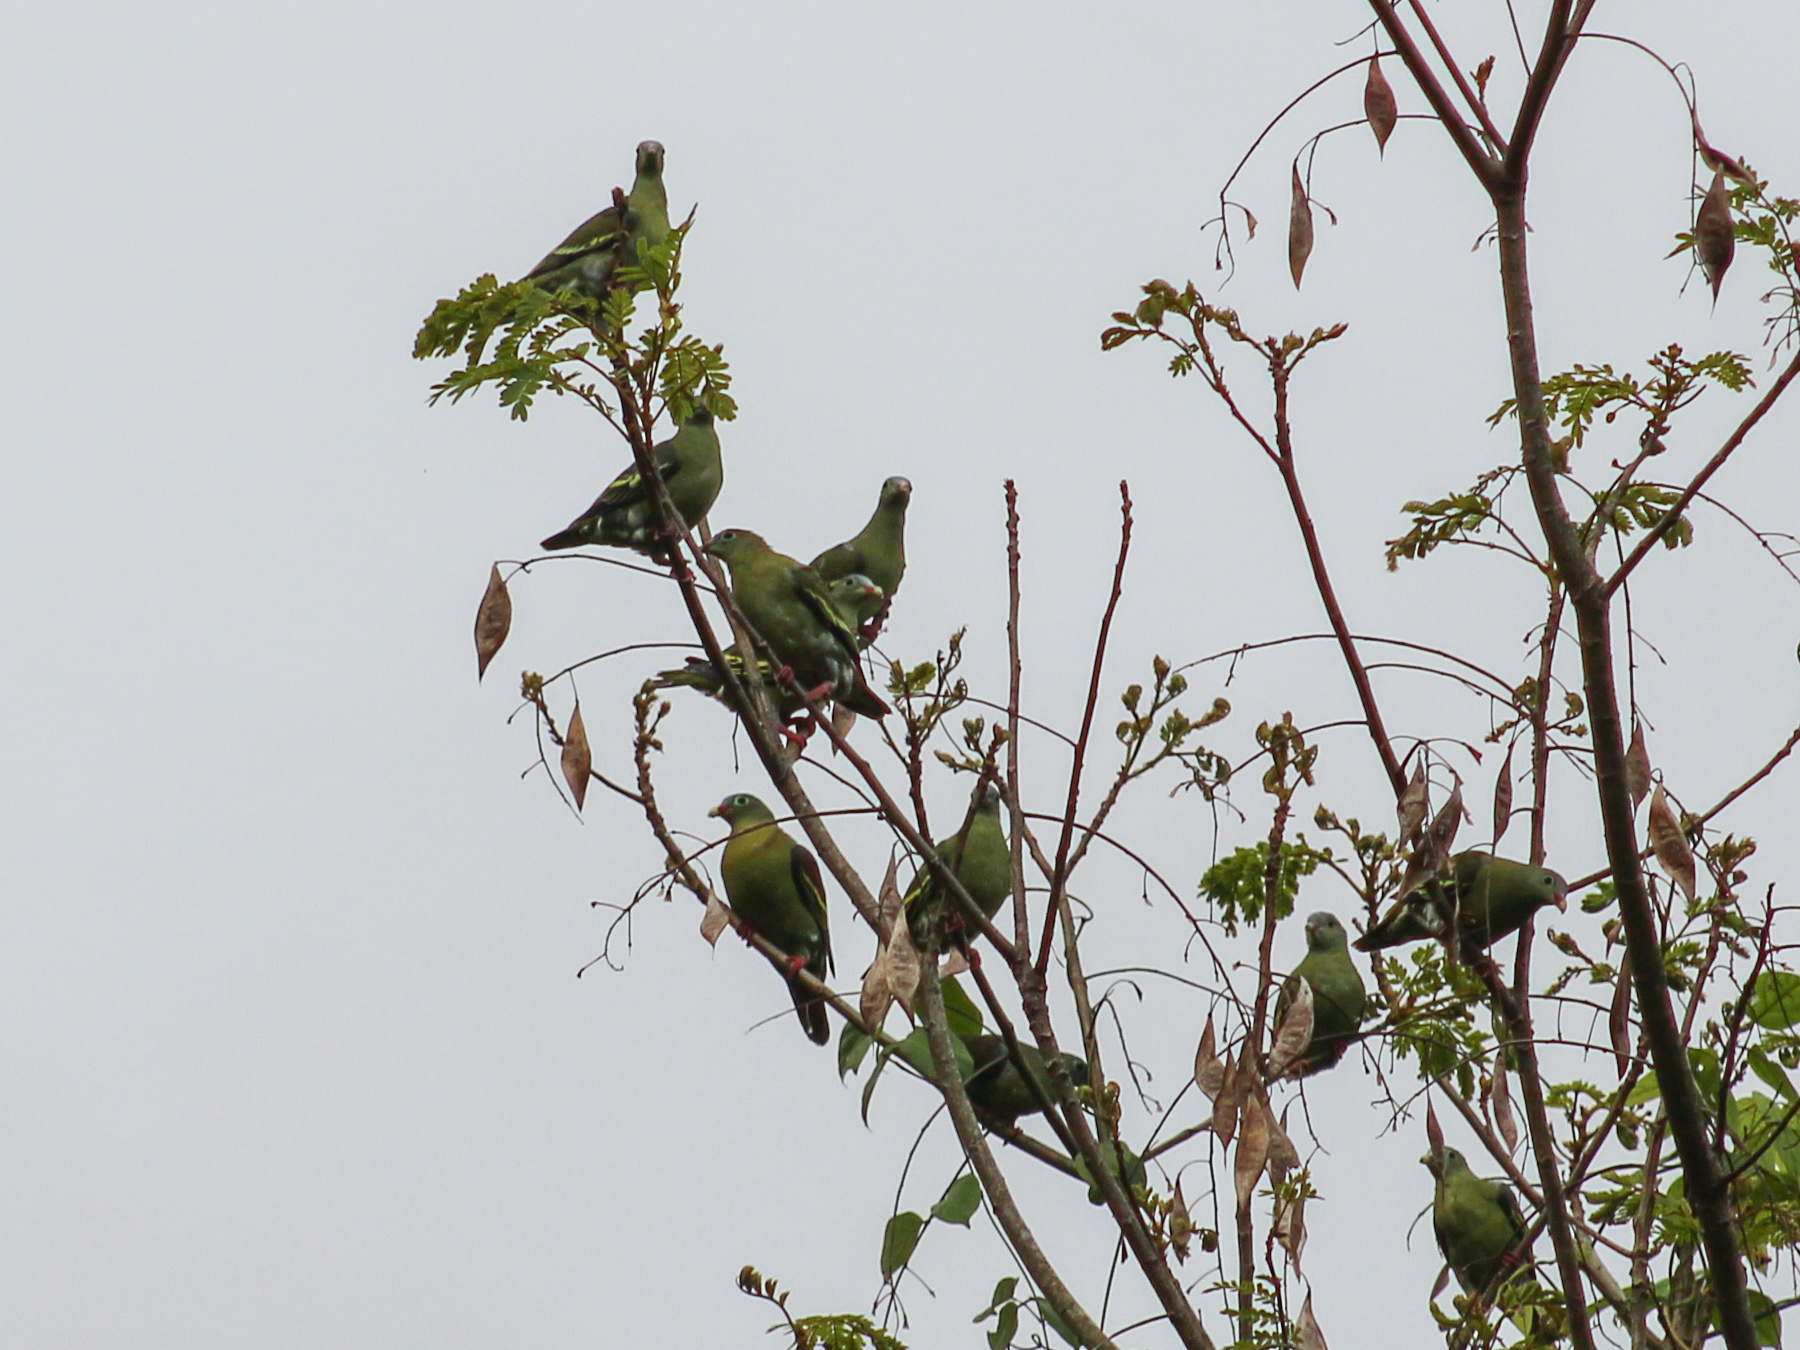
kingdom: Animalia
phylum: Chordata
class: Aves
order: Columbiformes
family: Columbidae
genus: Treron
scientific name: Treron curvirostra
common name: Thick-billed green pigeon
